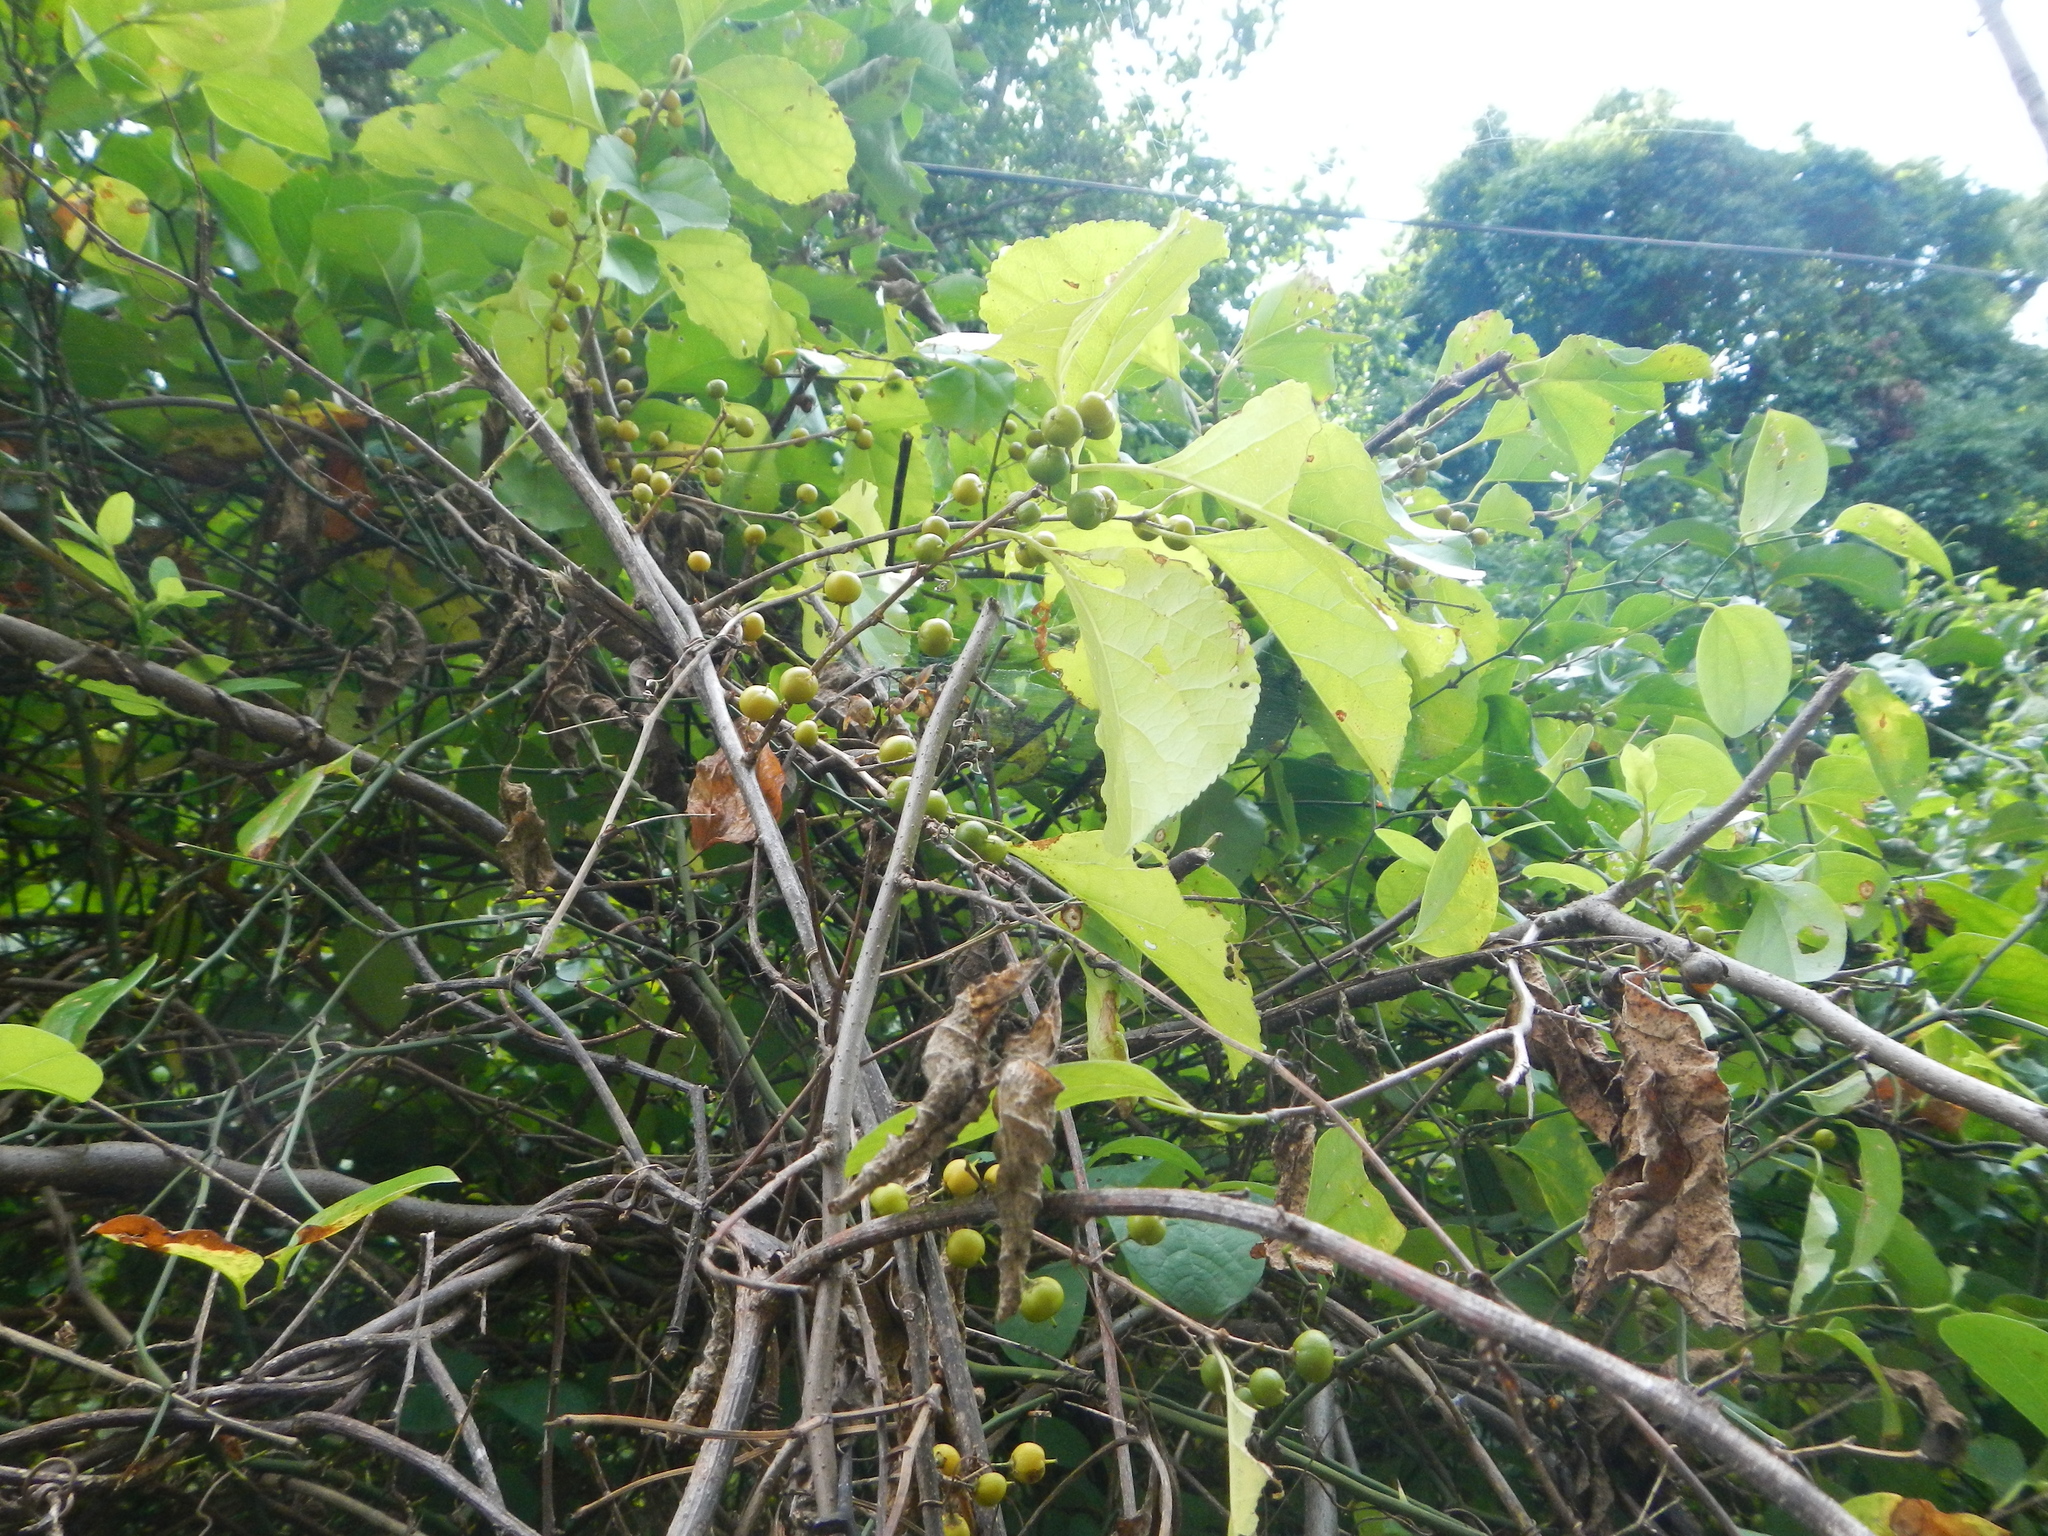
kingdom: Plantae
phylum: Tracheophyta
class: Magnoliopsida
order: Celastrales
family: Celastraceae
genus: Celastrus
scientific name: Celastrus orbiculatus
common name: Oriental bittersweet
